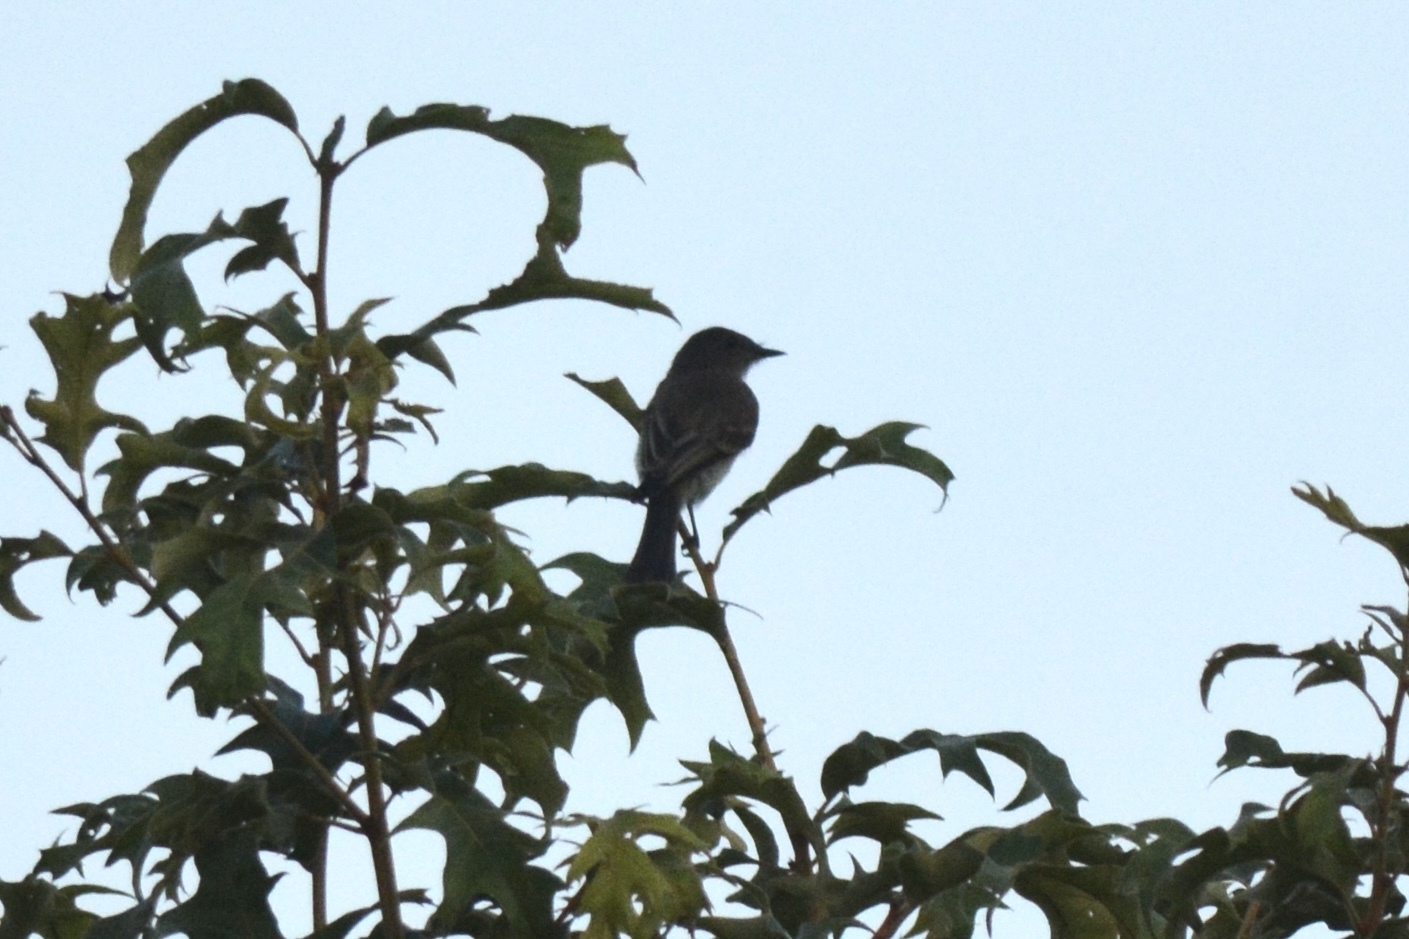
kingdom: Animalia
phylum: Chordata
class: Aves
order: Passeriformes
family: Tyrannidae
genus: Sayornis
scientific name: Sayornis phoebe
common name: Eastern phoebe
